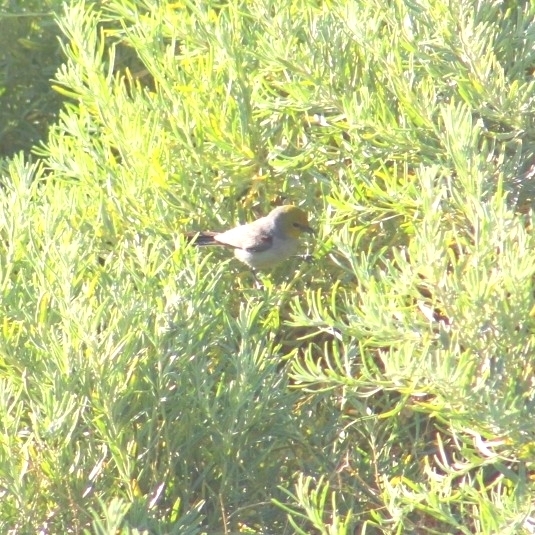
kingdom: Animalia
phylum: Chordata
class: Aves
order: Passeriformes
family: Remizidae
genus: Auriparus
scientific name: Auriparus flaviceps
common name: Verdin
